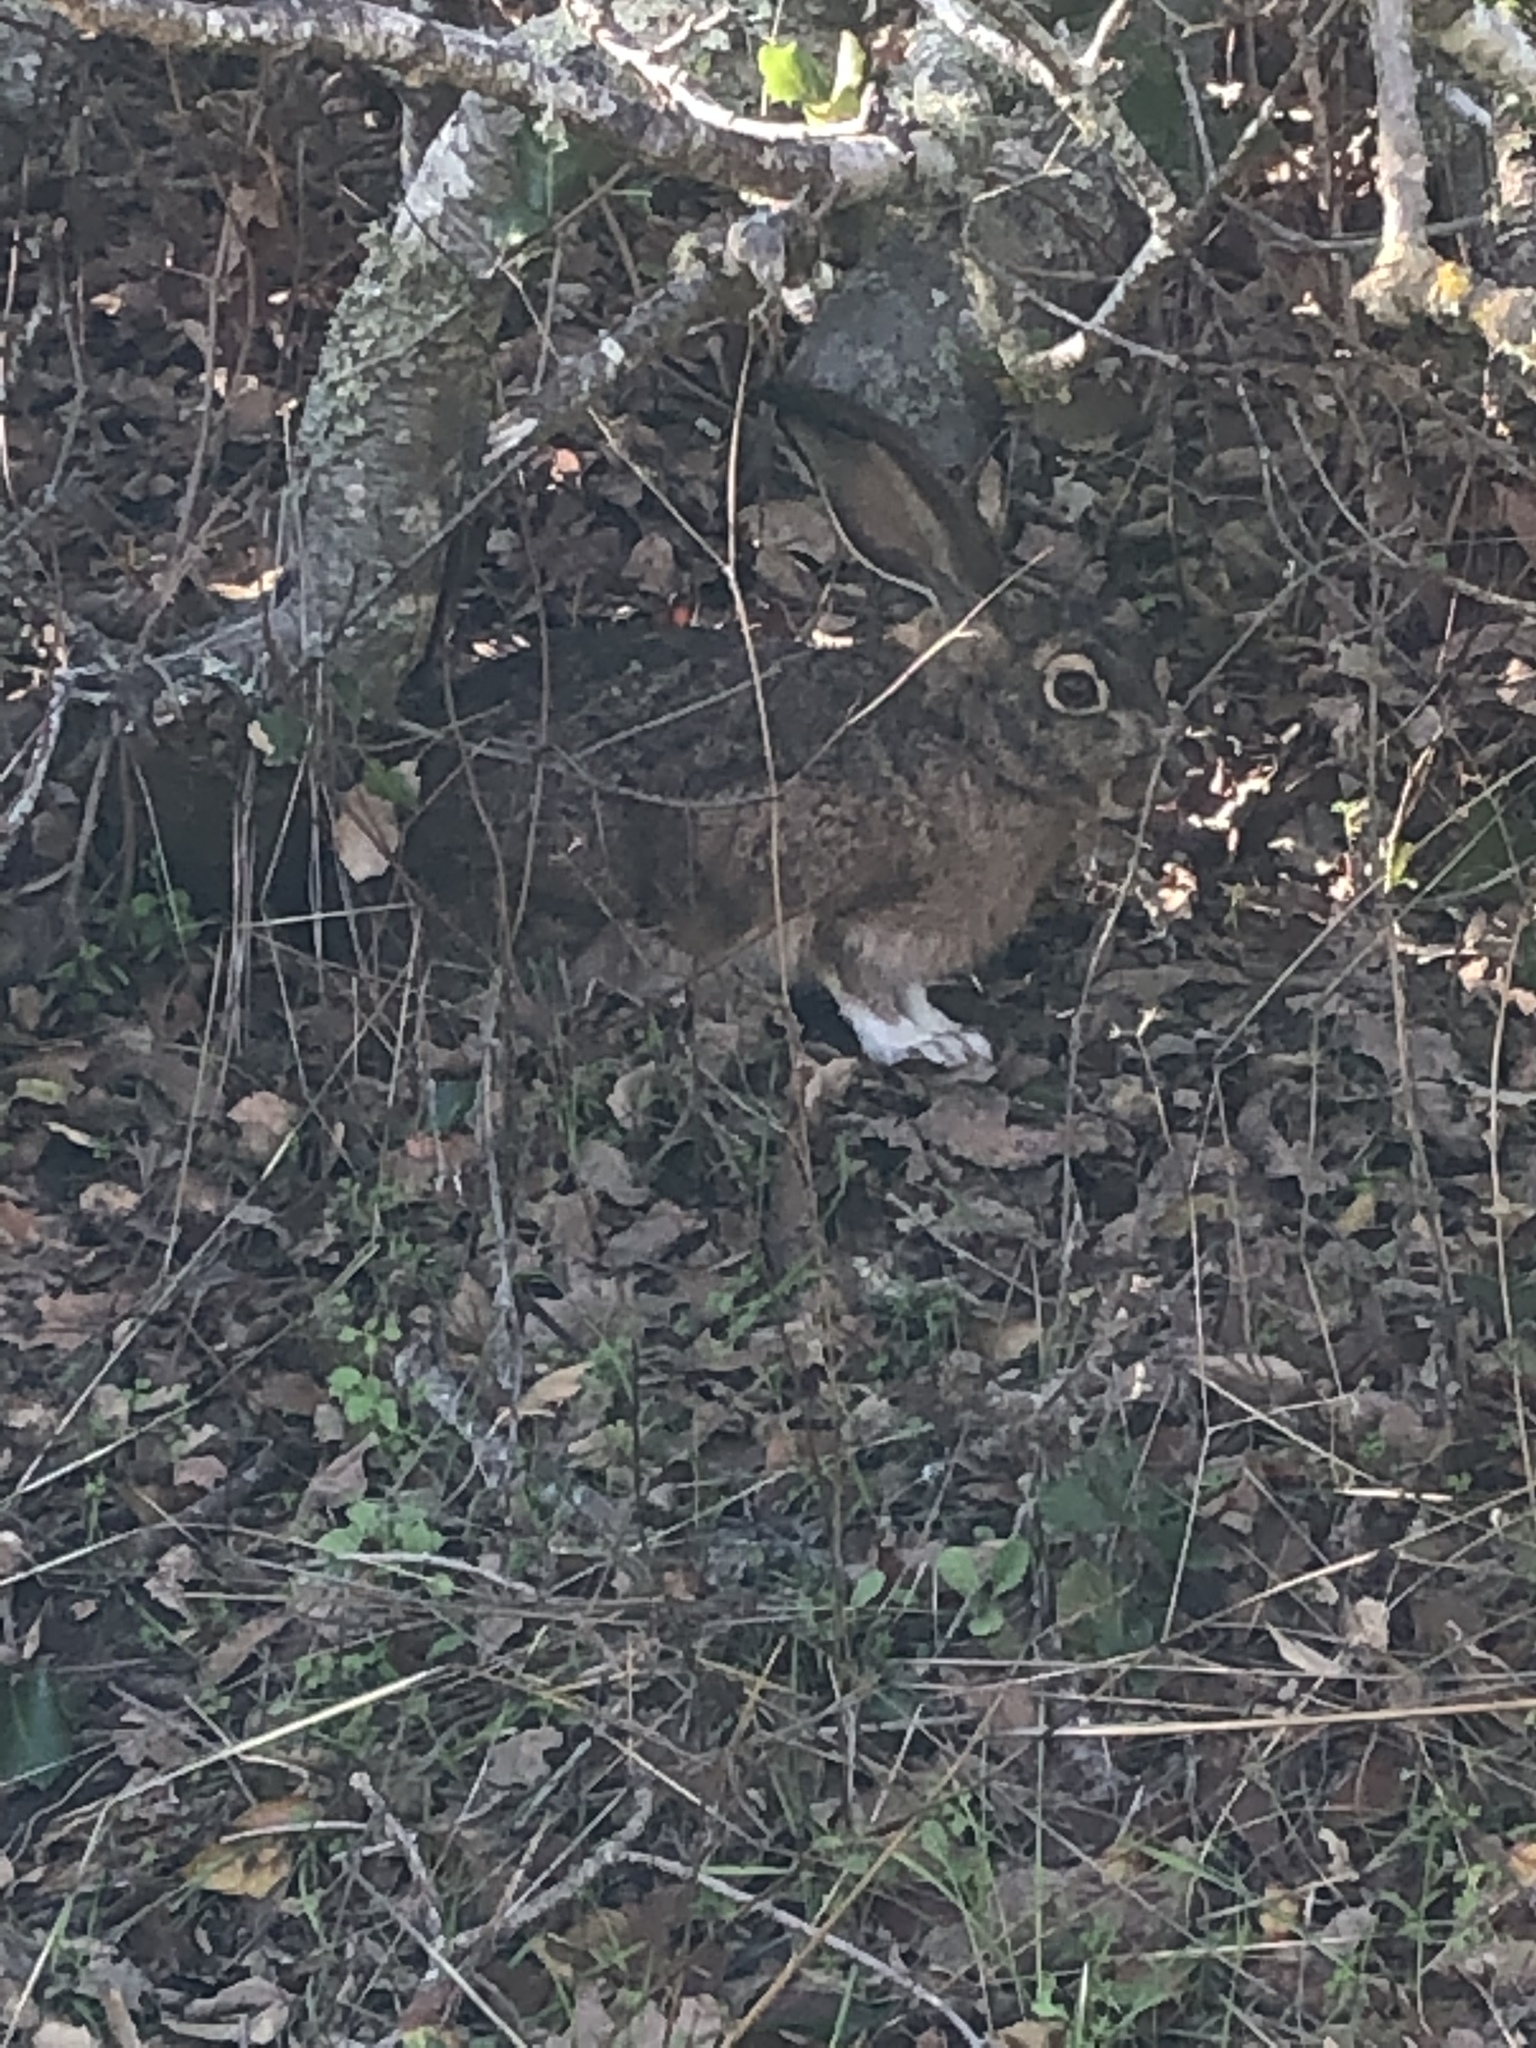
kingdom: Animalia
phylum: Chordata
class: Mammalia
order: Lagomorpha
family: Leporidae
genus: Lepus
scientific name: Lepus californicus
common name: Black-tailed jackrabbit
